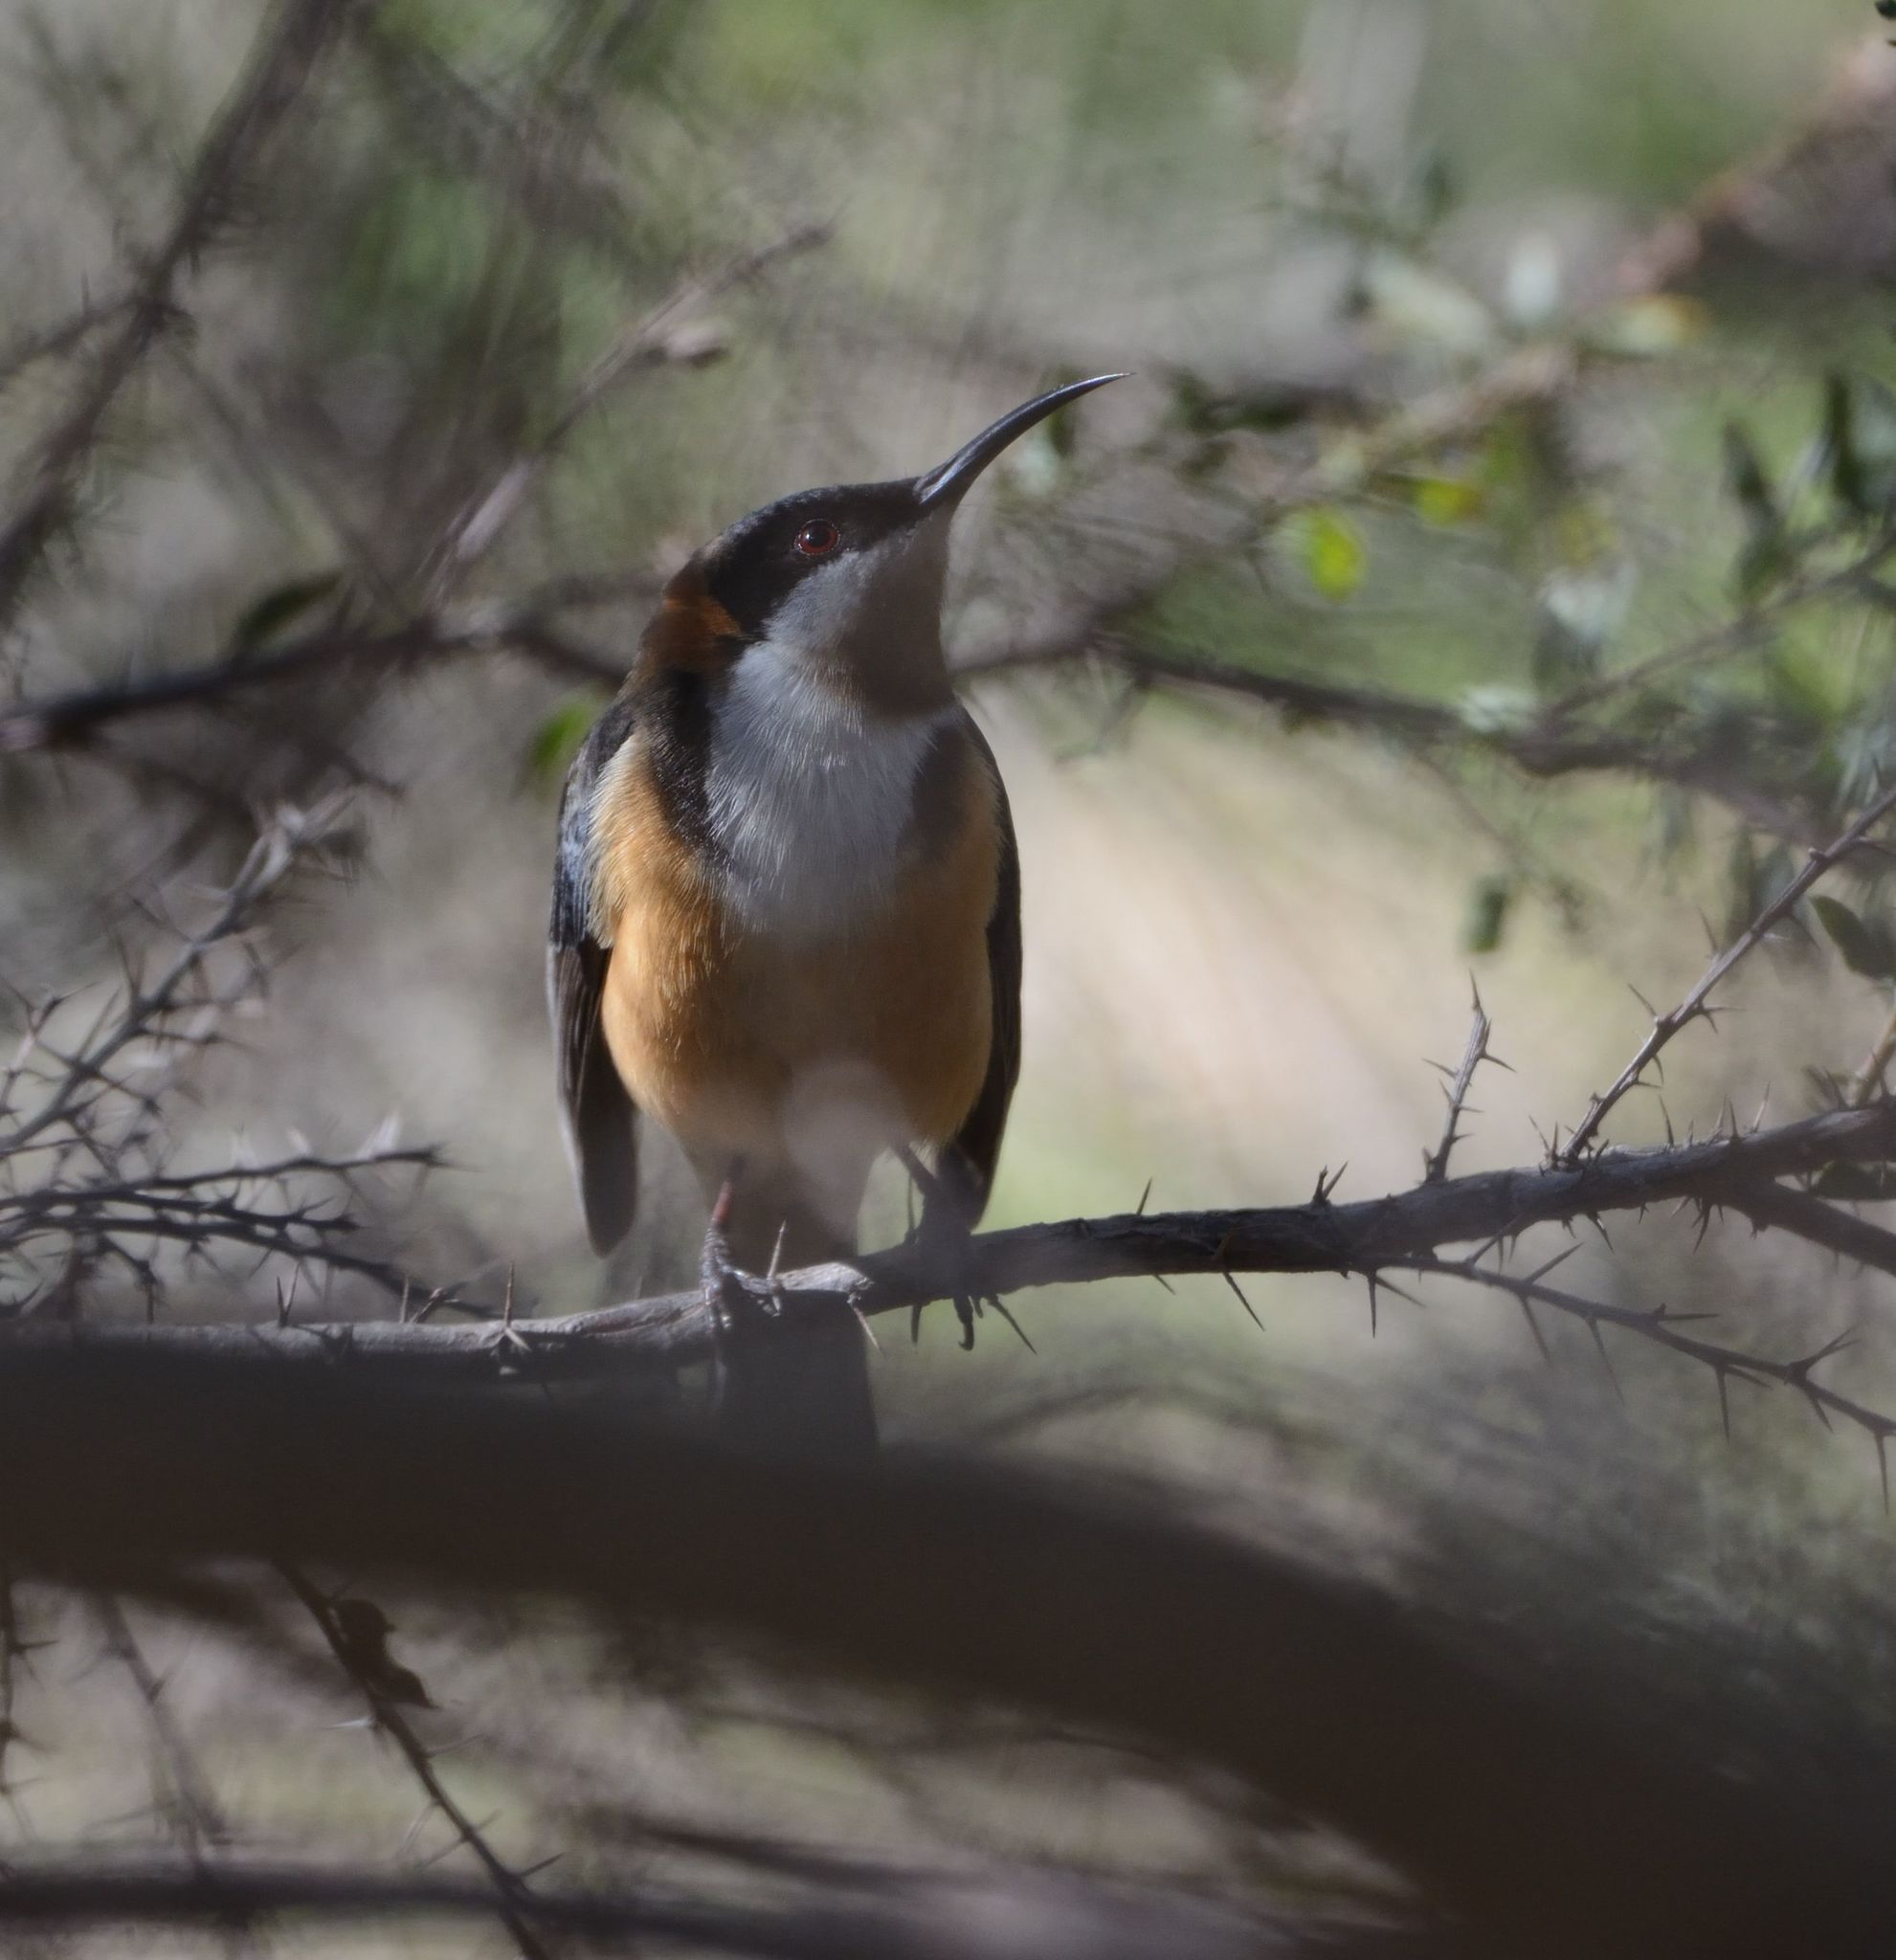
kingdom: Animalia
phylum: Chordata
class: Aves
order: Passeriformes
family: Meliphagidae
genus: Acanthorhynchus
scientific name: Acanthorhynchus tenuirostris
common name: Eastern spinebill
